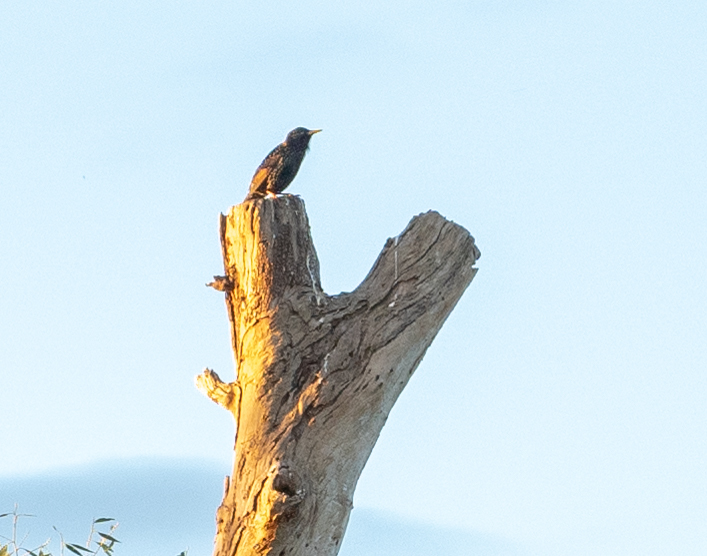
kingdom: Animalia
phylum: Chordata
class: Aves
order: Passeriformes
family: Sturnidae
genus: Sturnus
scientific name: Sturnus vulgaris
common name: Common starling
